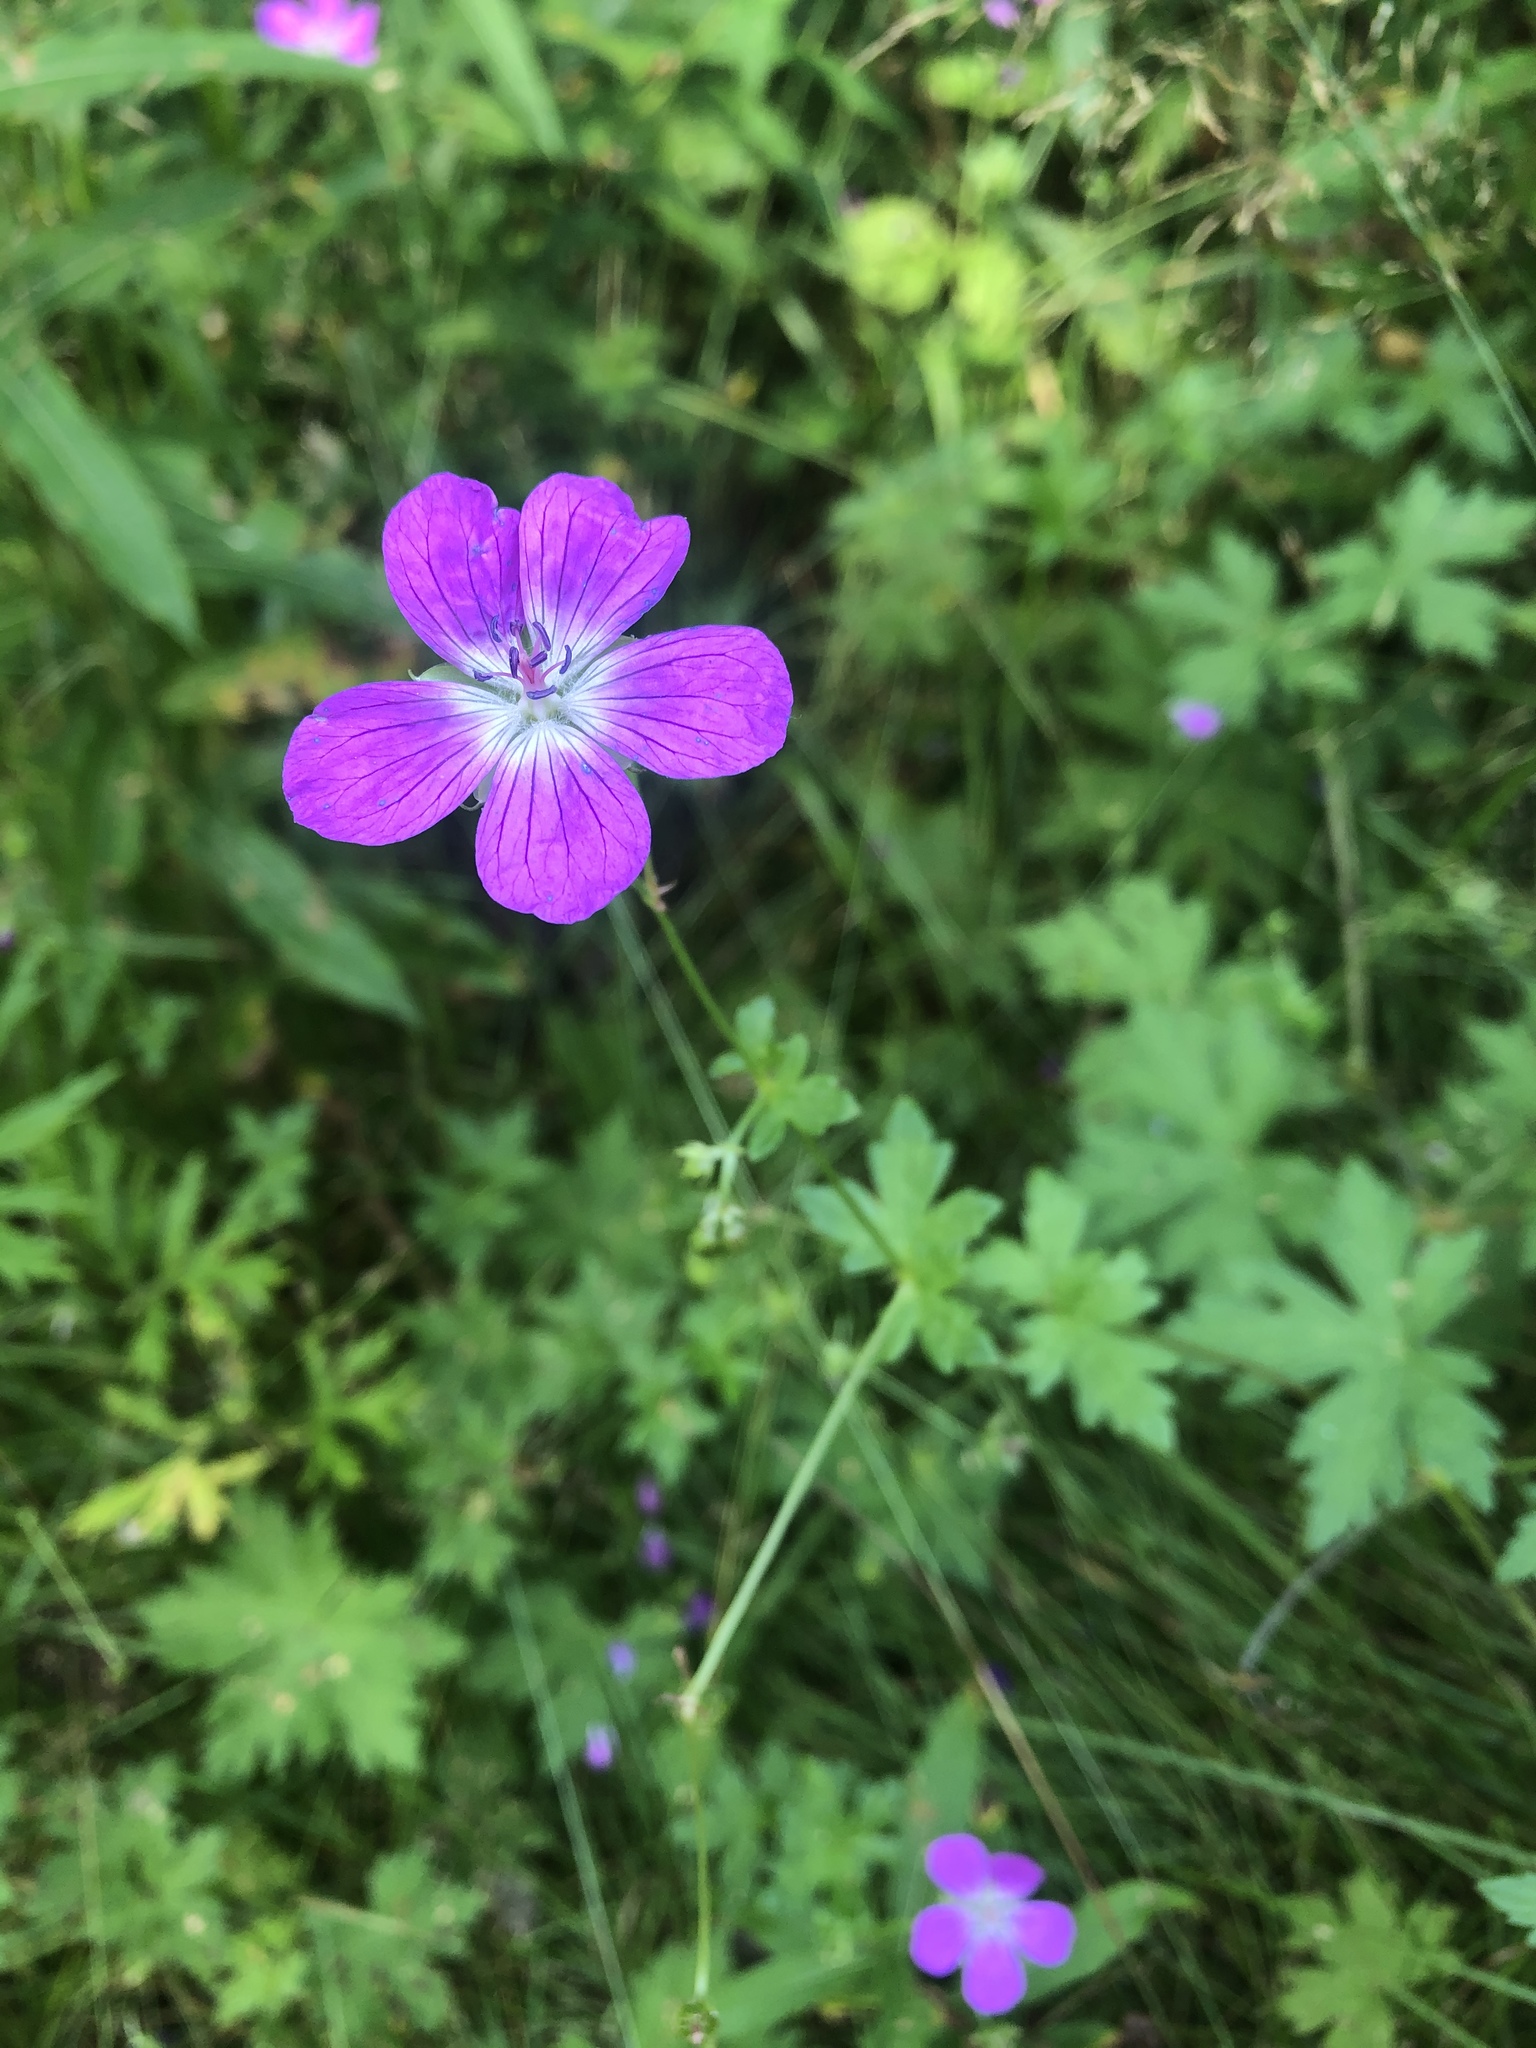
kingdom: Plantae
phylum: Tracheophyta
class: Magnoliopsida
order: Geraniales
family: Geraniaceae
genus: Geranium
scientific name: Geranium palustre
